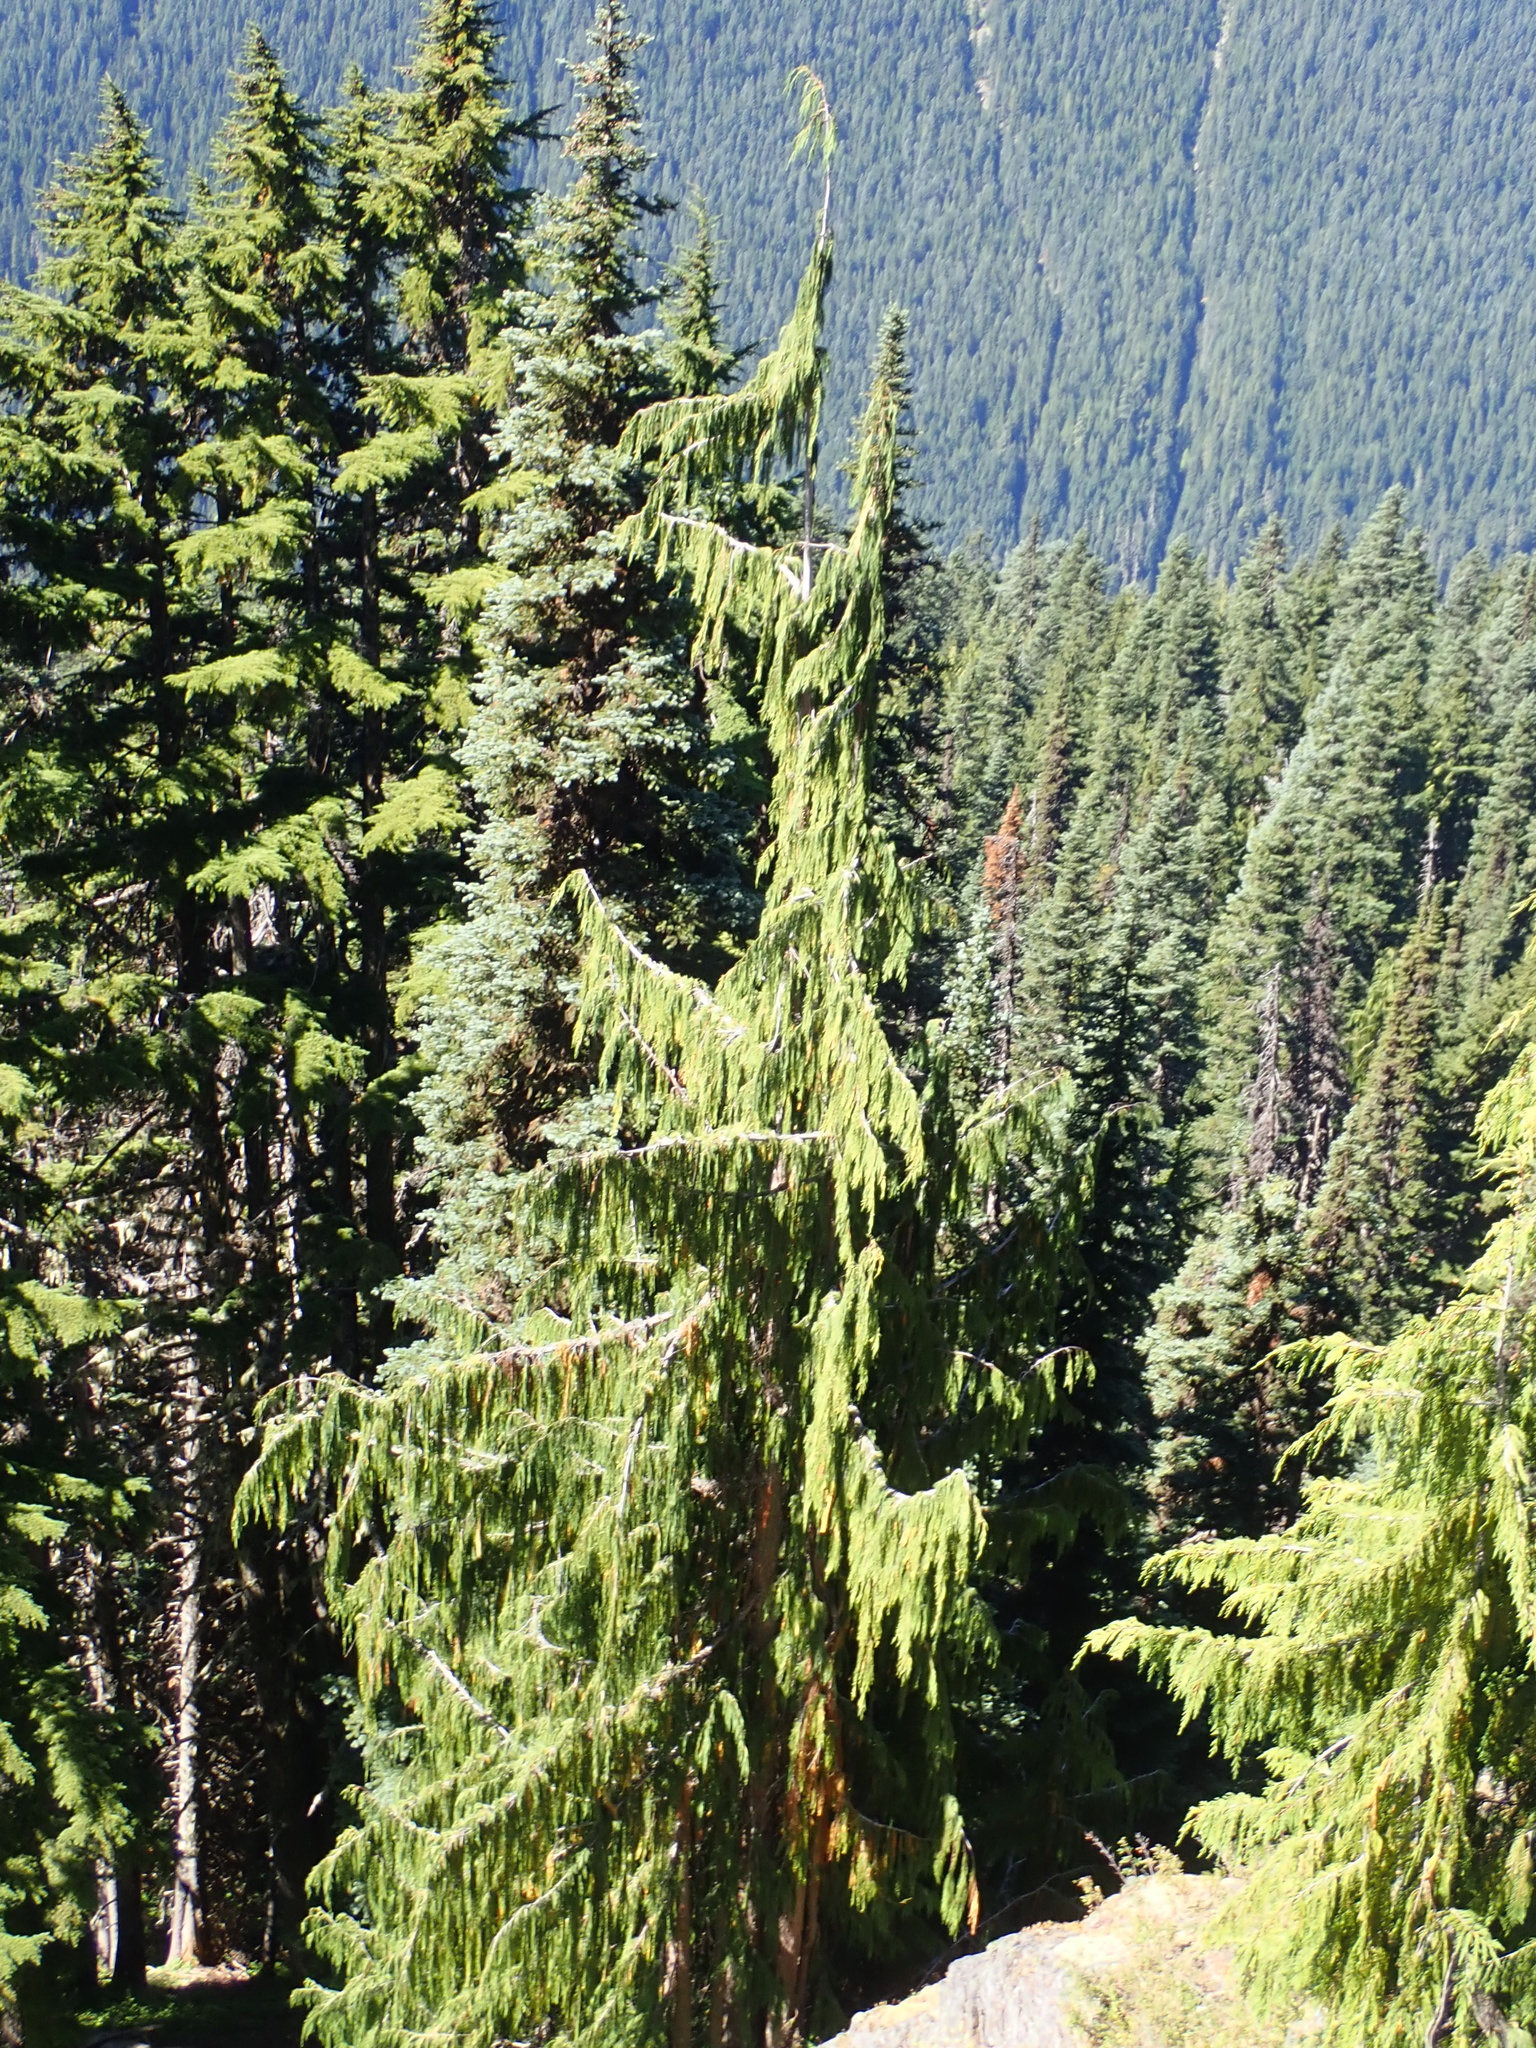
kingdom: Plantae
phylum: Tracheophyta
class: Pinopsida
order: Pinales
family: Cupressaceae
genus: Xanthocyparis
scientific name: Xanthocyparis nootkatensis
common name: Nootka cypress
